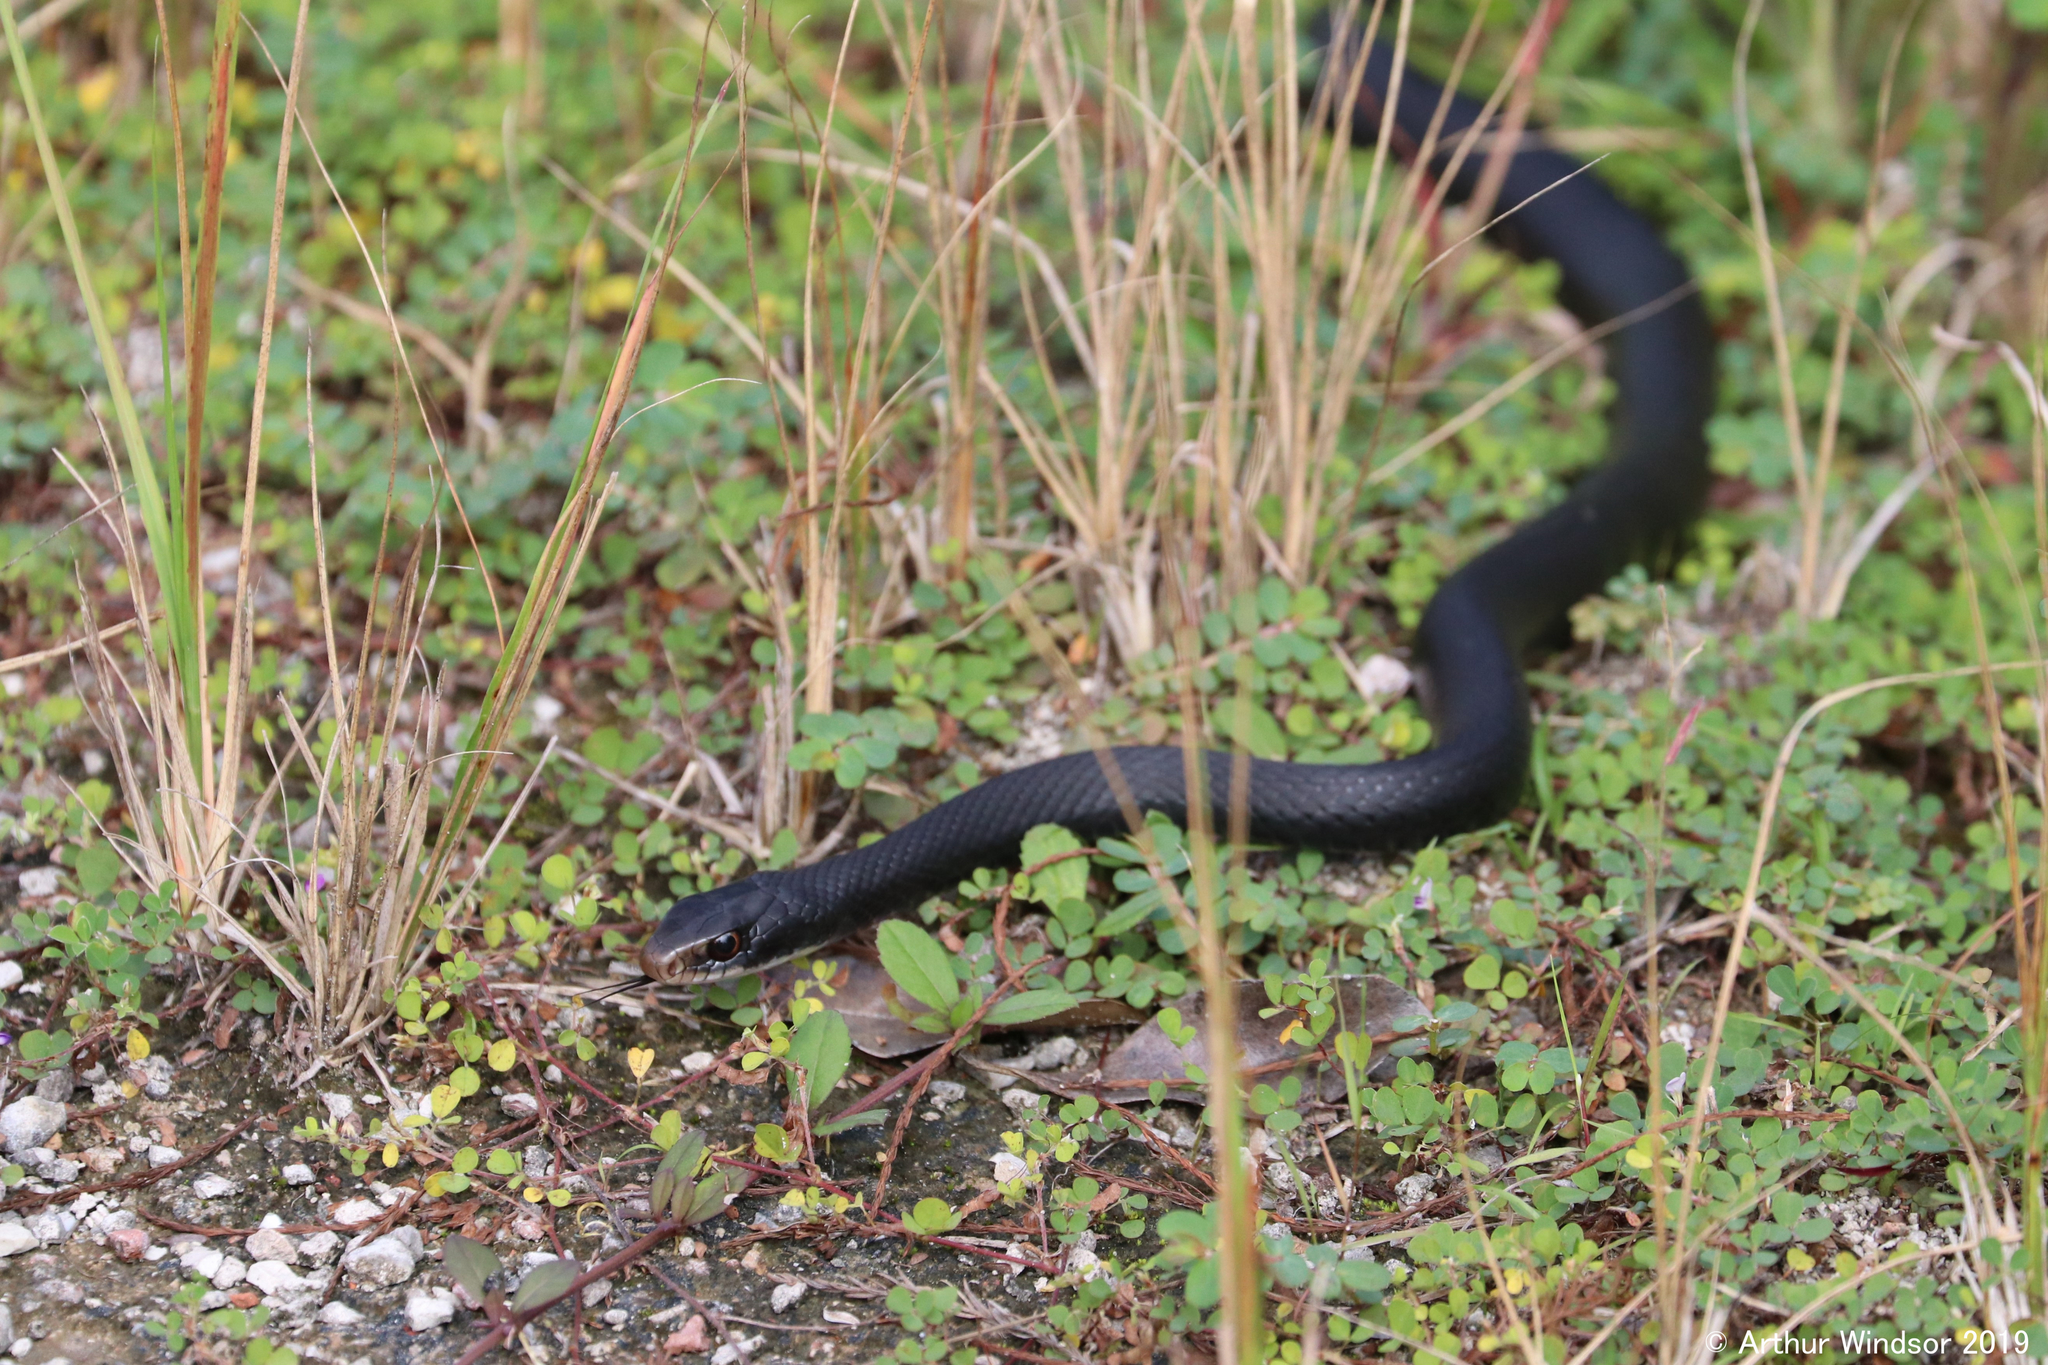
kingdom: Animalia
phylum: Chordata
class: Squamata
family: Colubridae
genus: Coluber
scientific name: Coluber constrictor
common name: Eastern racer
